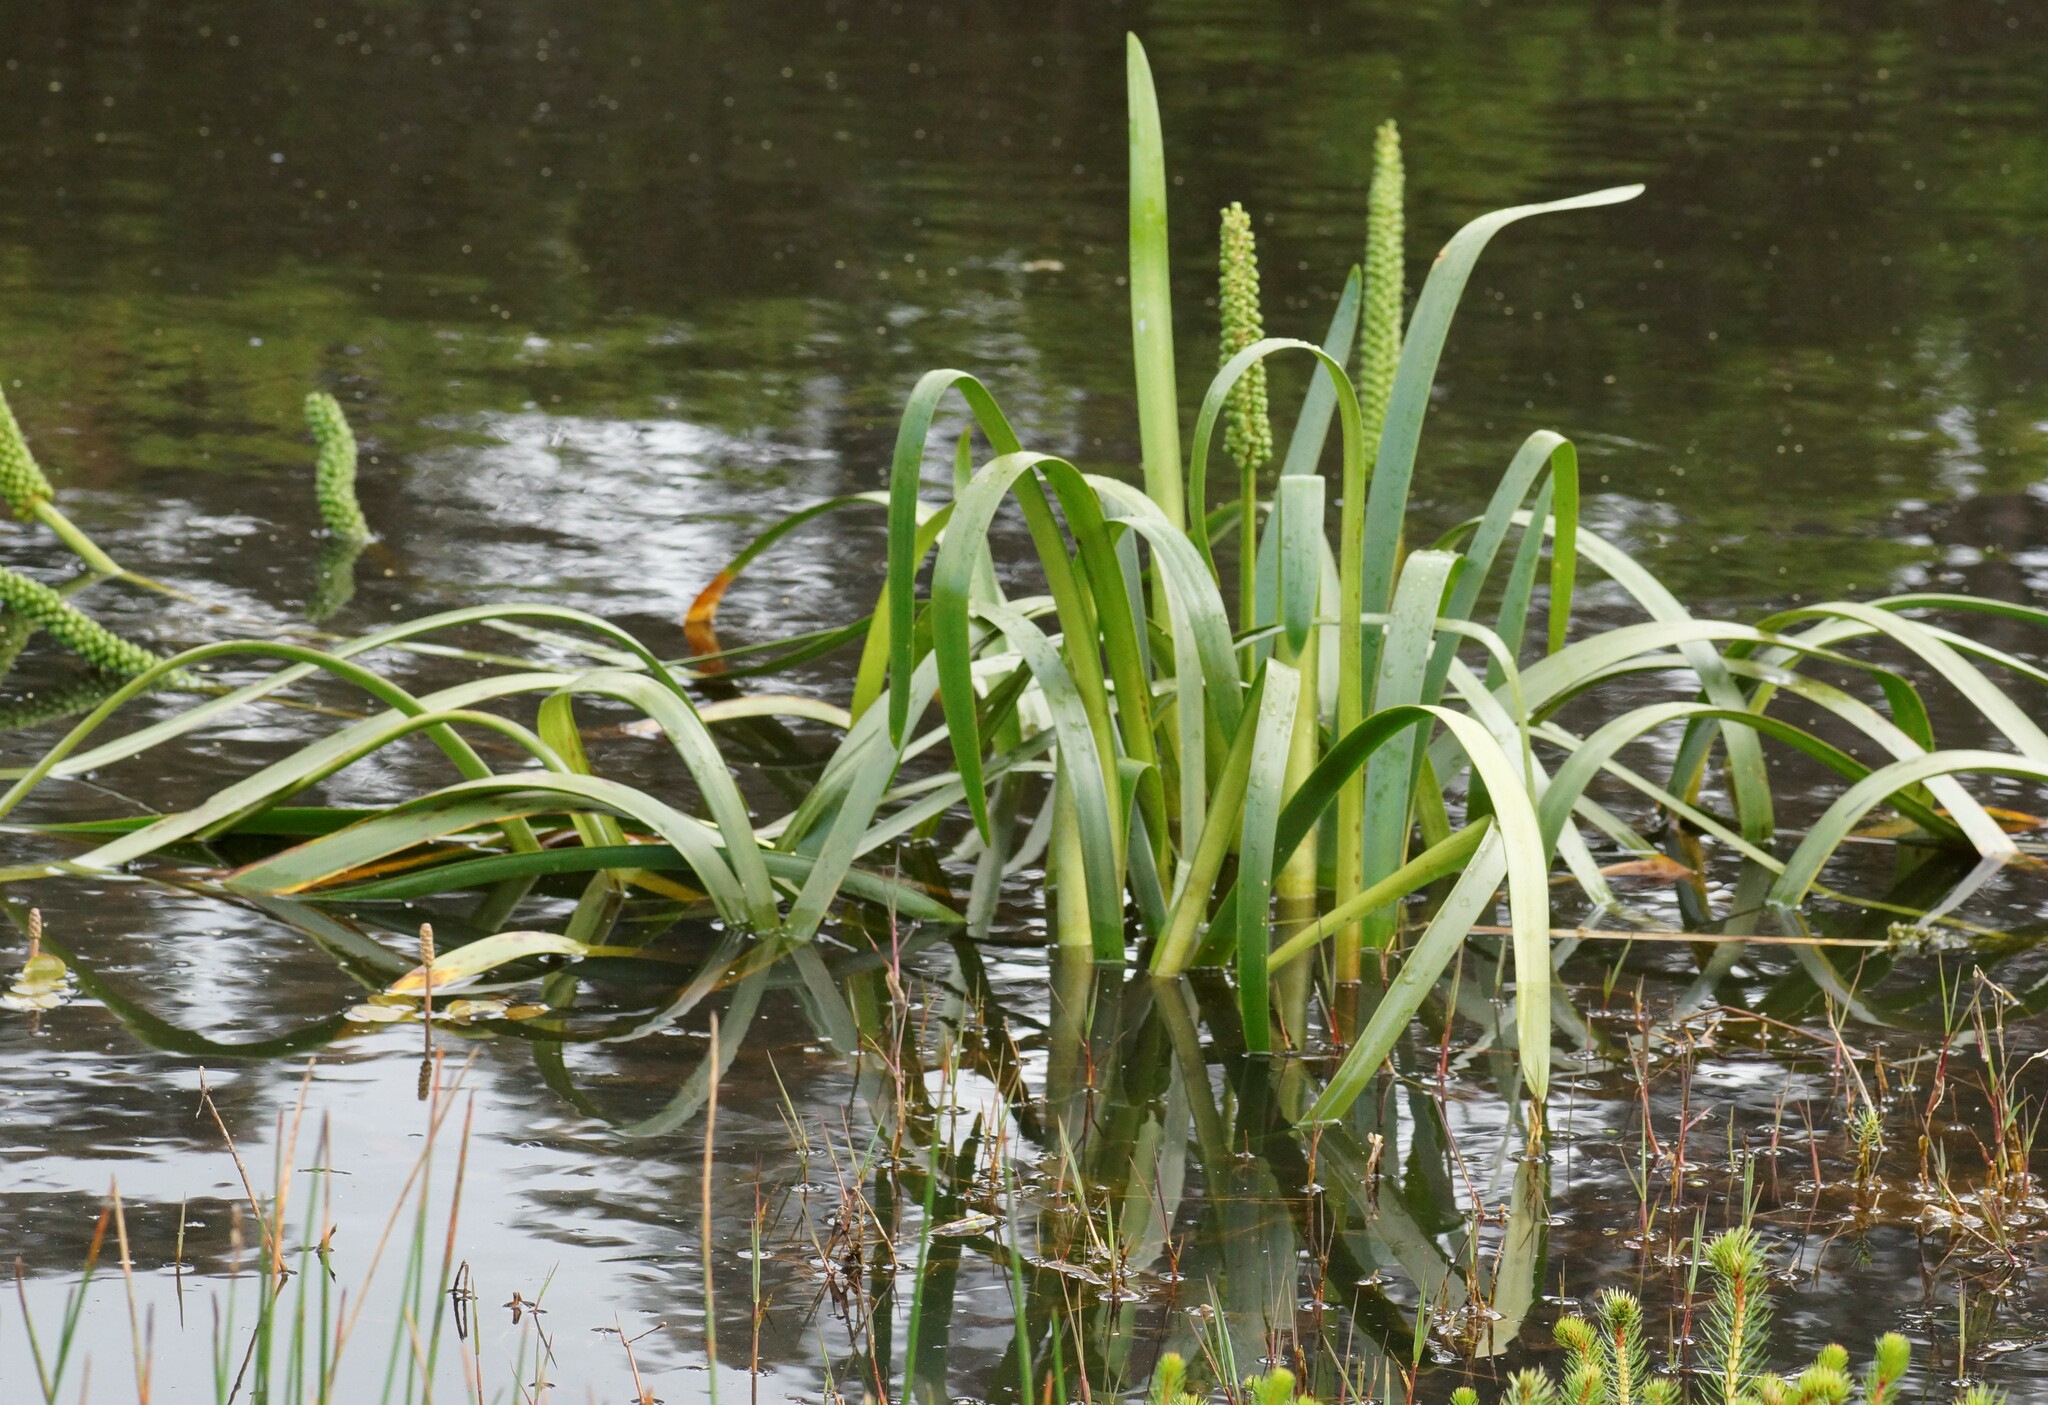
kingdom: Plantae
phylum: Tracheophyta
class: Liliopsida
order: Alismatales
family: Juncaginaceae
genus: Cycnogeton
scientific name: Cycnogeton procerum
